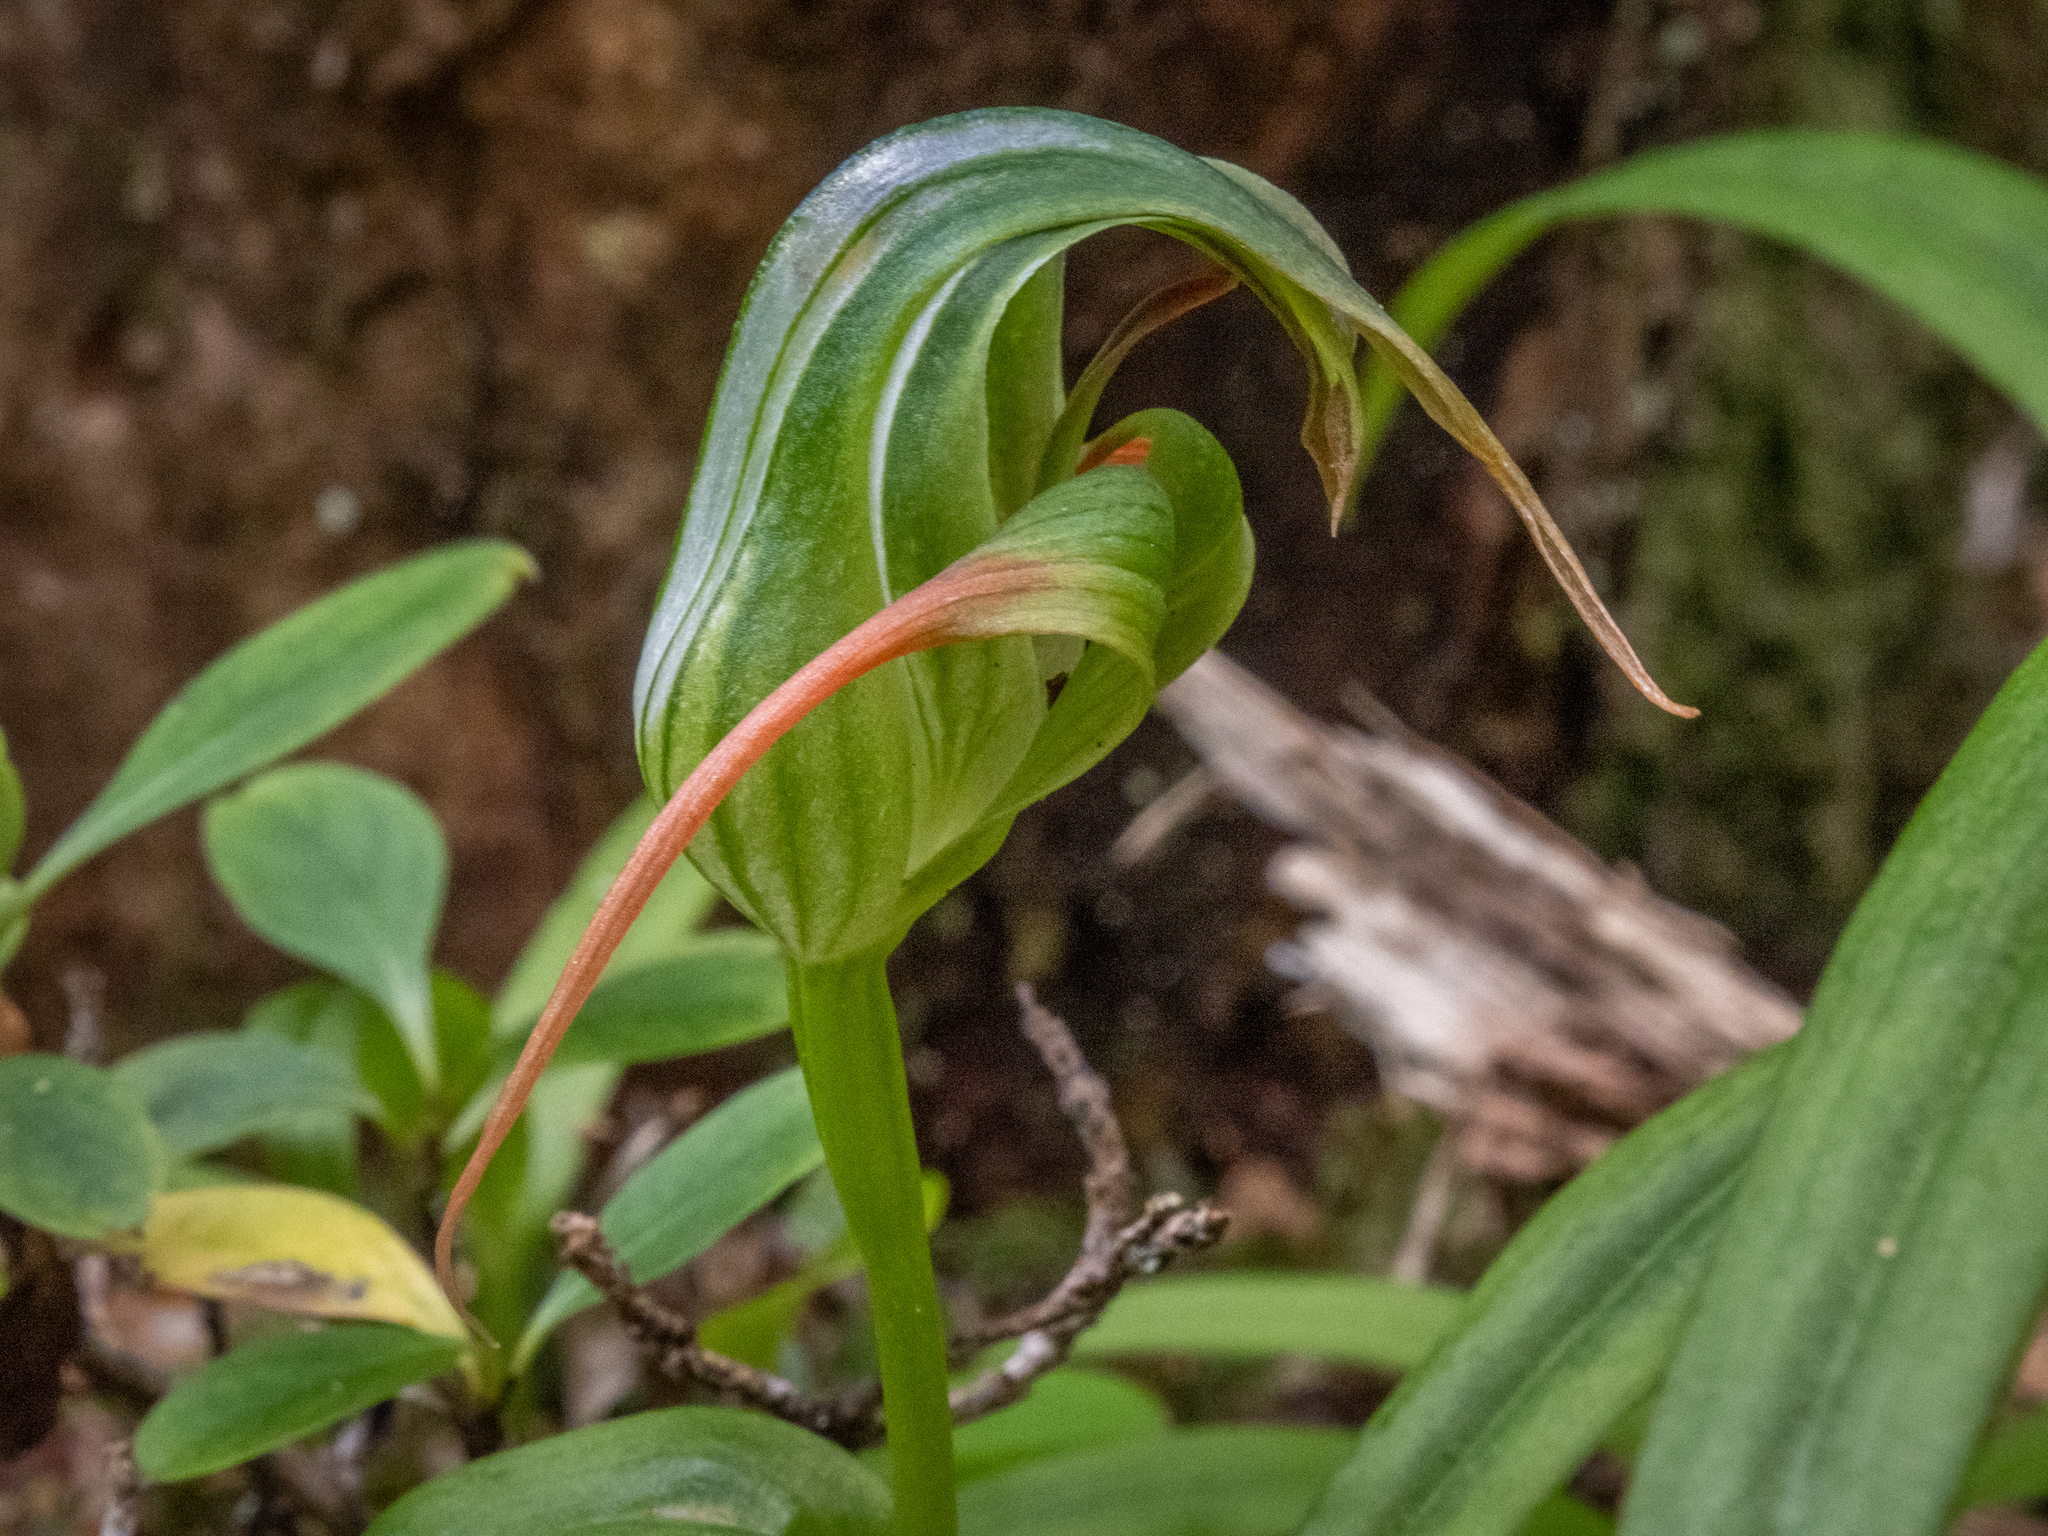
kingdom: Plantae
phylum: Tracheophyta
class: Liliopsida
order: Asparagales
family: Orchidaceae
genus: Pterostylis
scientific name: Pterostylis patens
